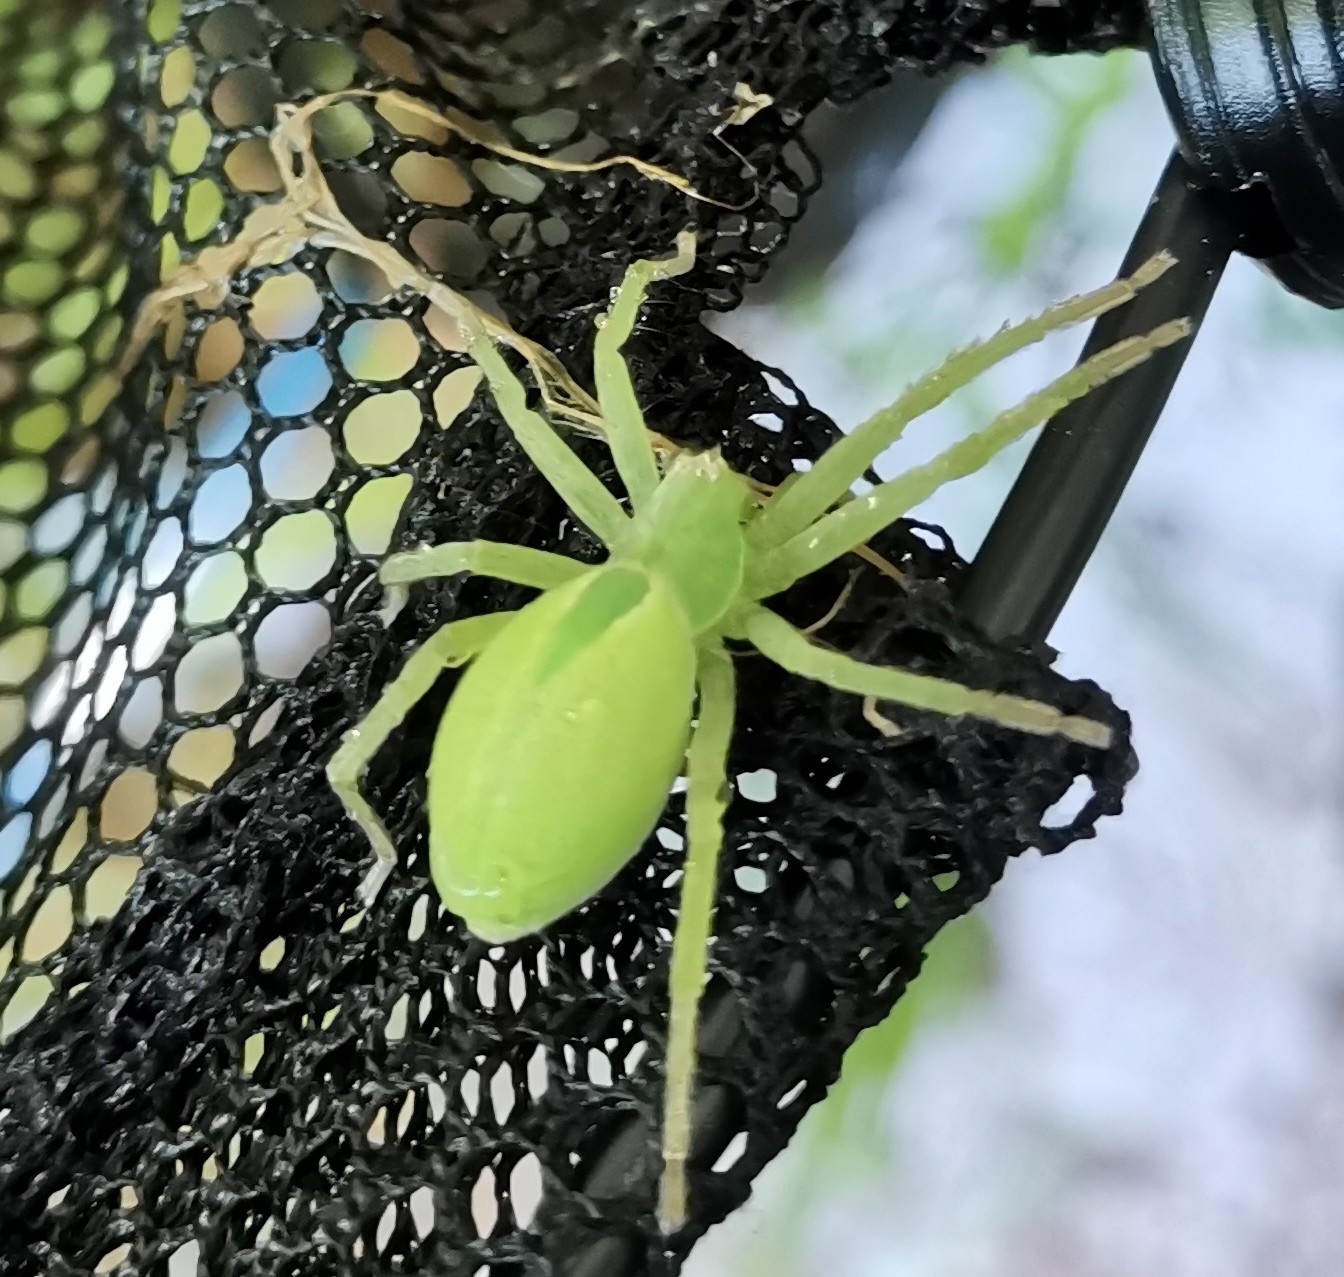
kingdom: Animalia
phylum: Arthropoda
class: Arachnida
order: Araneae
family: Sparassidae
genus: Micrommata
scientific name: Micrommata virescens
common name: Green spider
